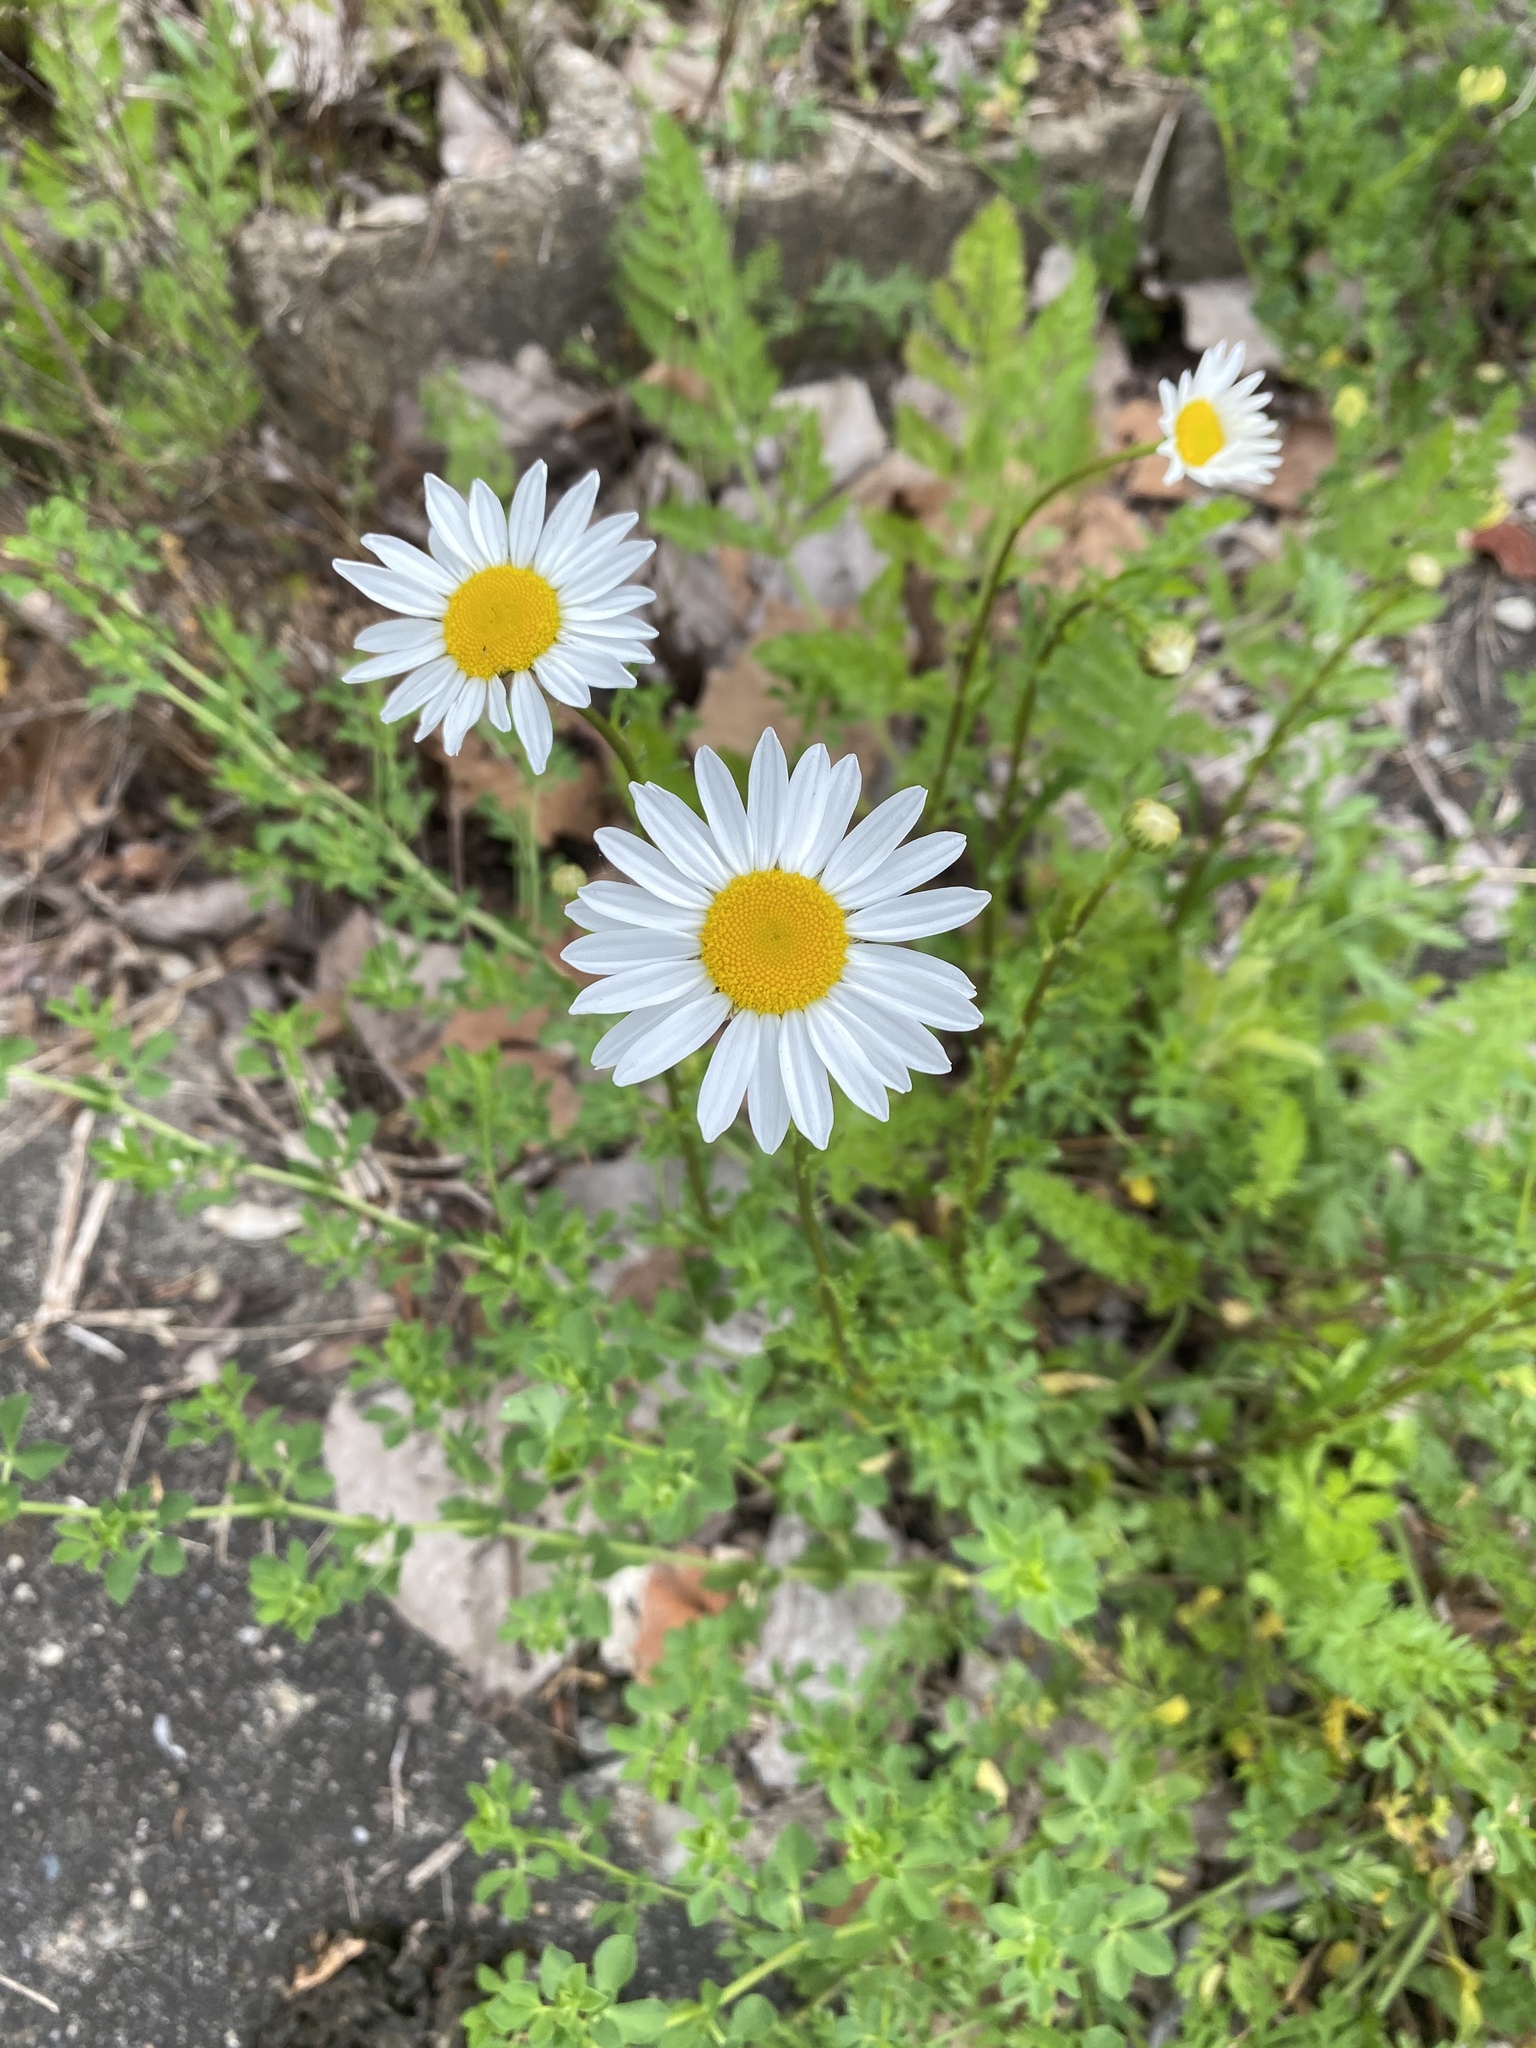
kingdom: Plantae
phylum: Tracheophyta
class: Magnoliopsida
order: Asterales
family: Asteraceae
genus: Leucanthemum
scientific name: Leucanthemum vulgare
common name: Oxeye daisy
